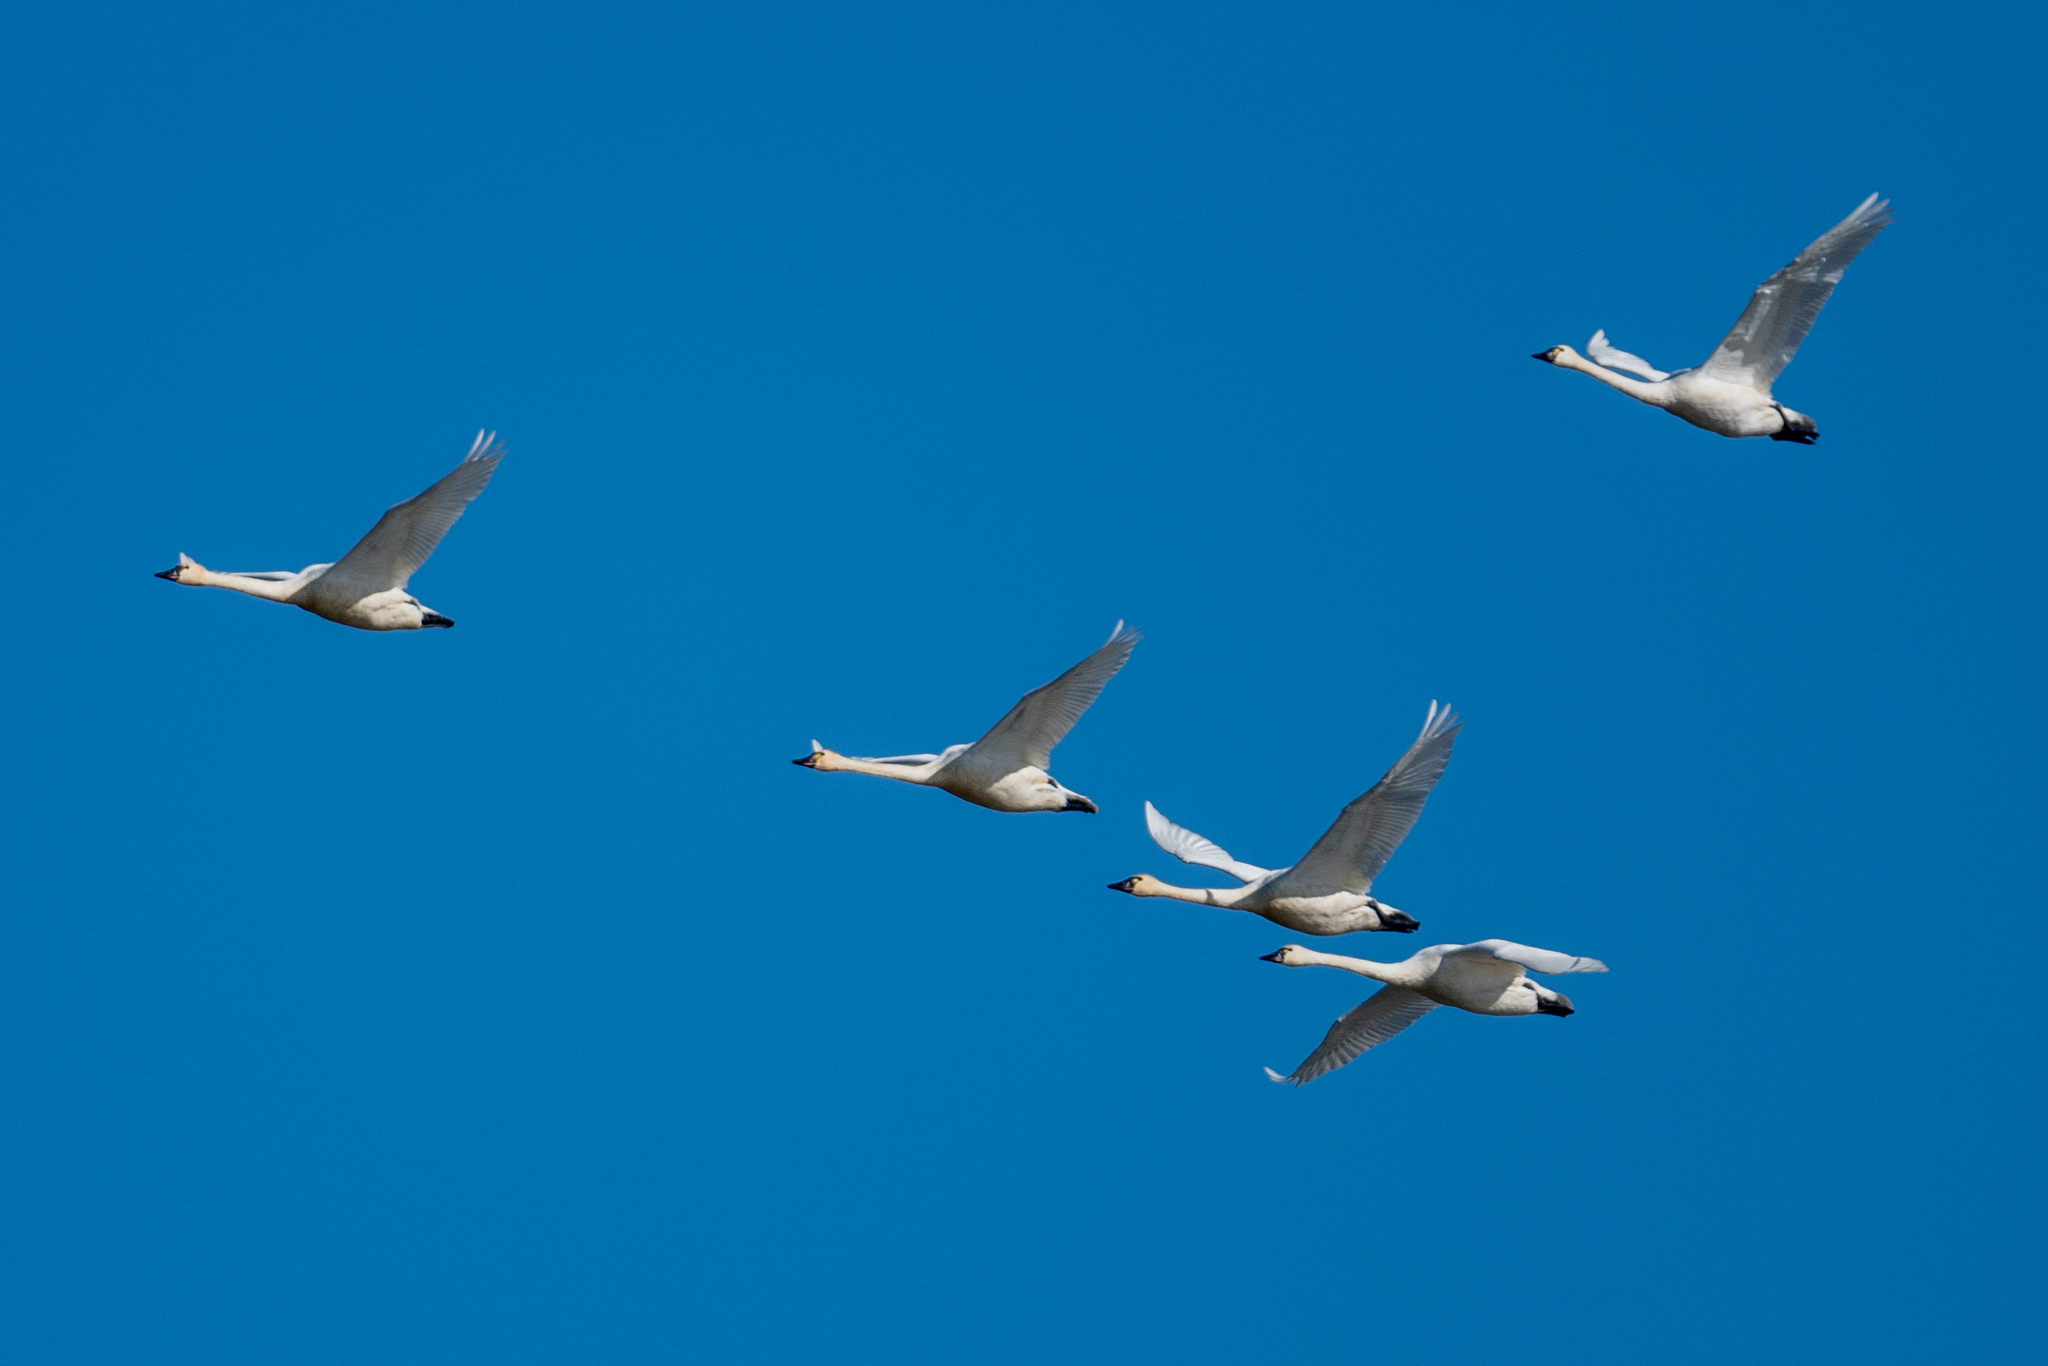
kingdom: Animalia
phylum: Chordata
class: Aves
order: Anseriformes
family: Anatidae
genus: Cygnus
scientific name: Cygnus columbianus
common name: Tundra swan
